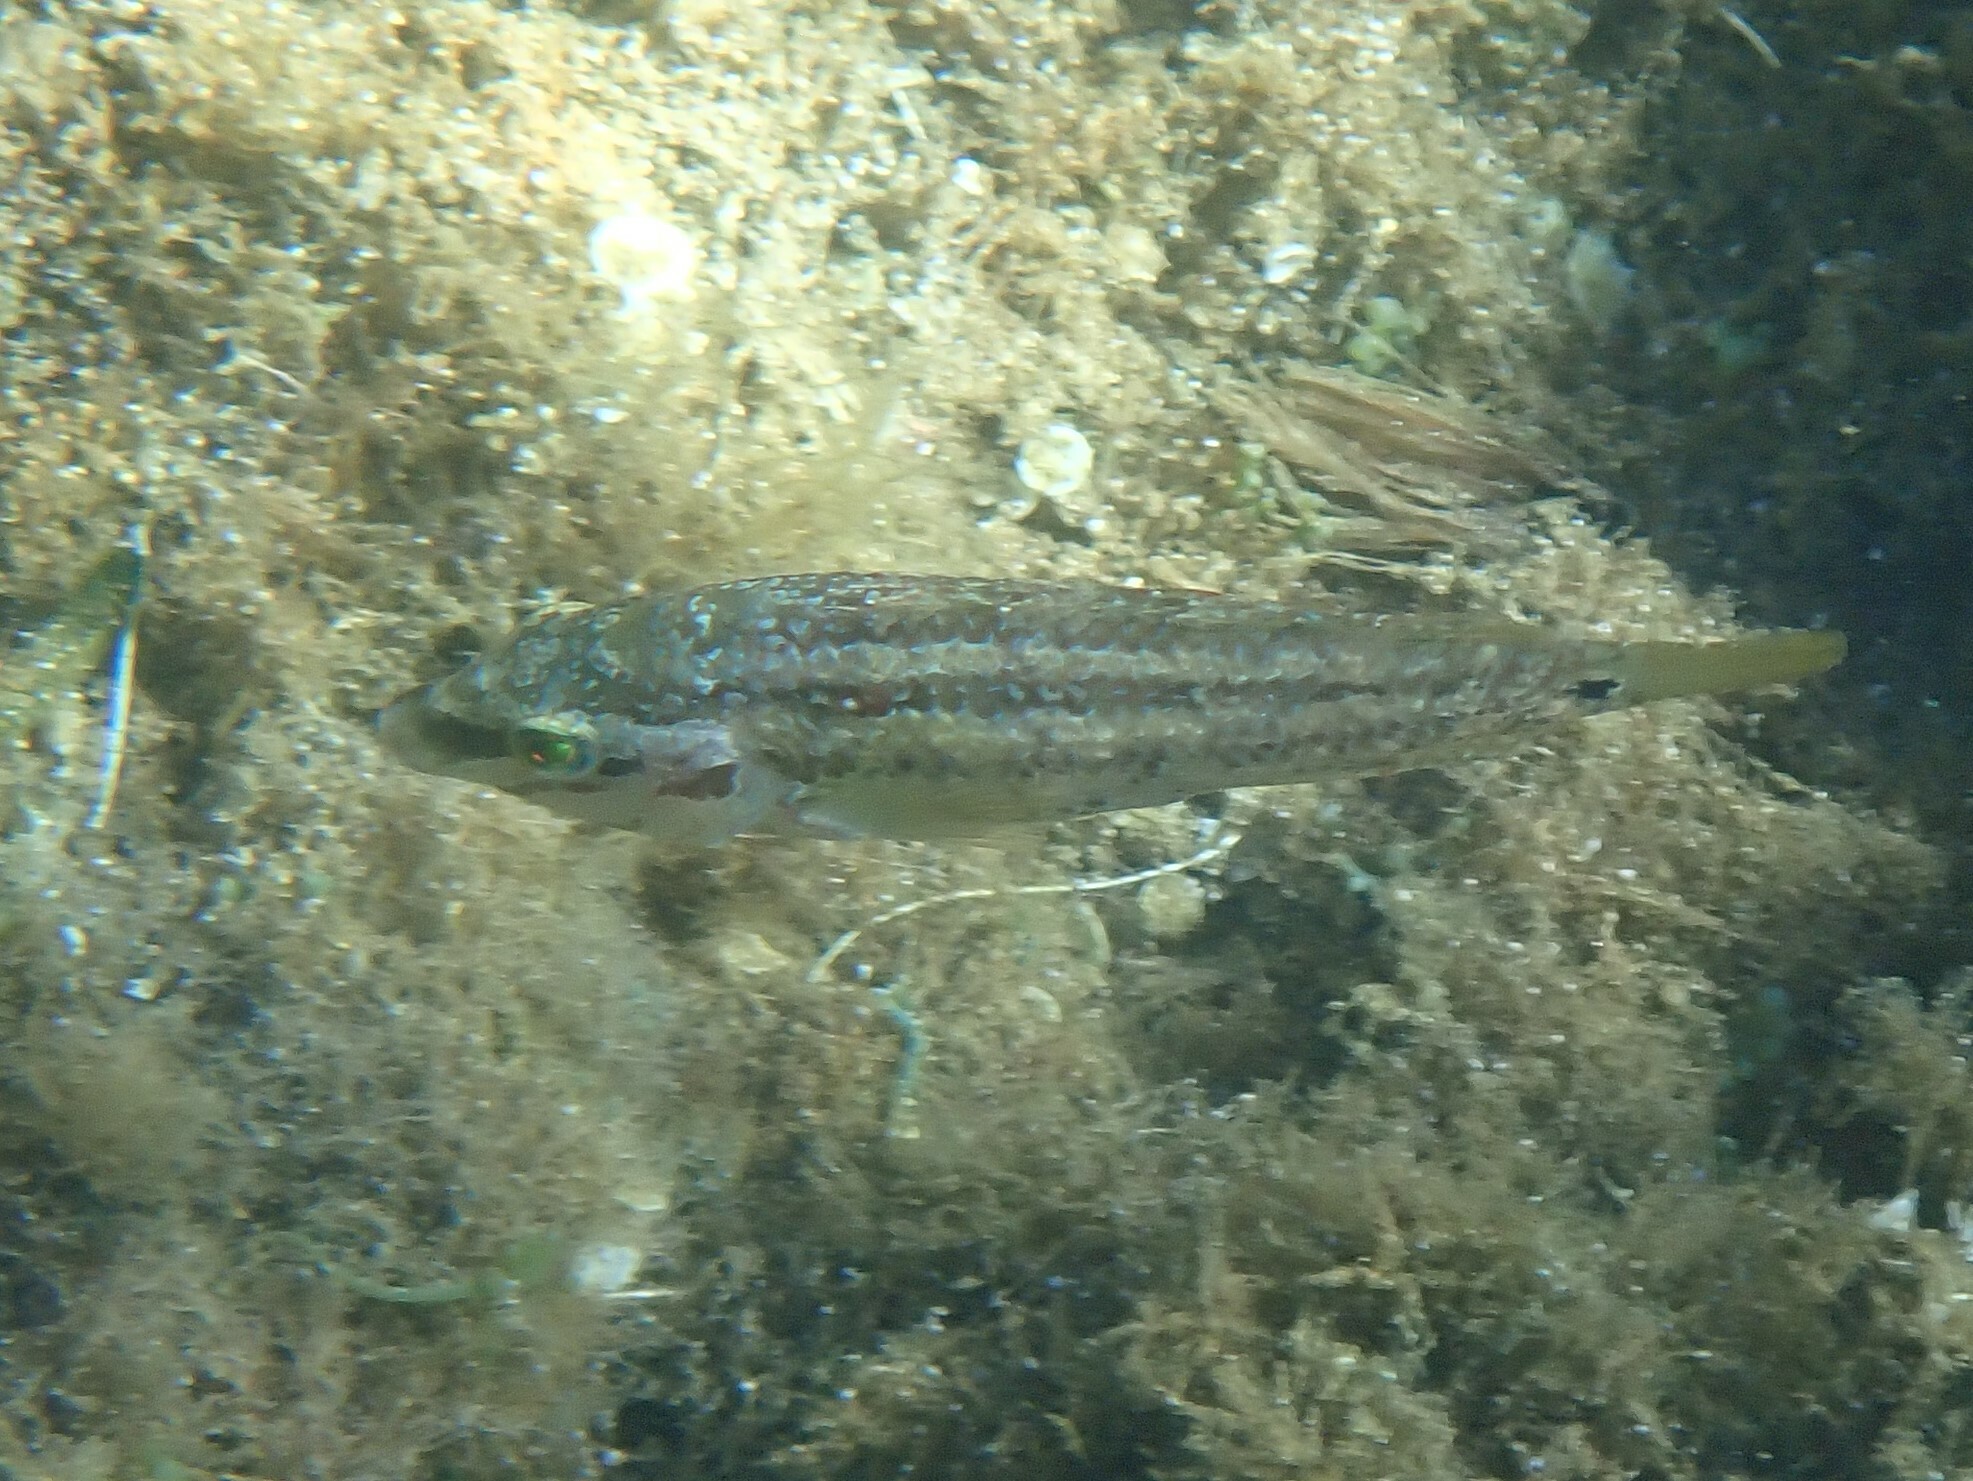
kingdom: Animalia
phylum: Chordata
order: Perciformes
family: Labridae
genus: Symphodus
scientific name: Symphodus roissali
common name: Five-spotted wrasse
